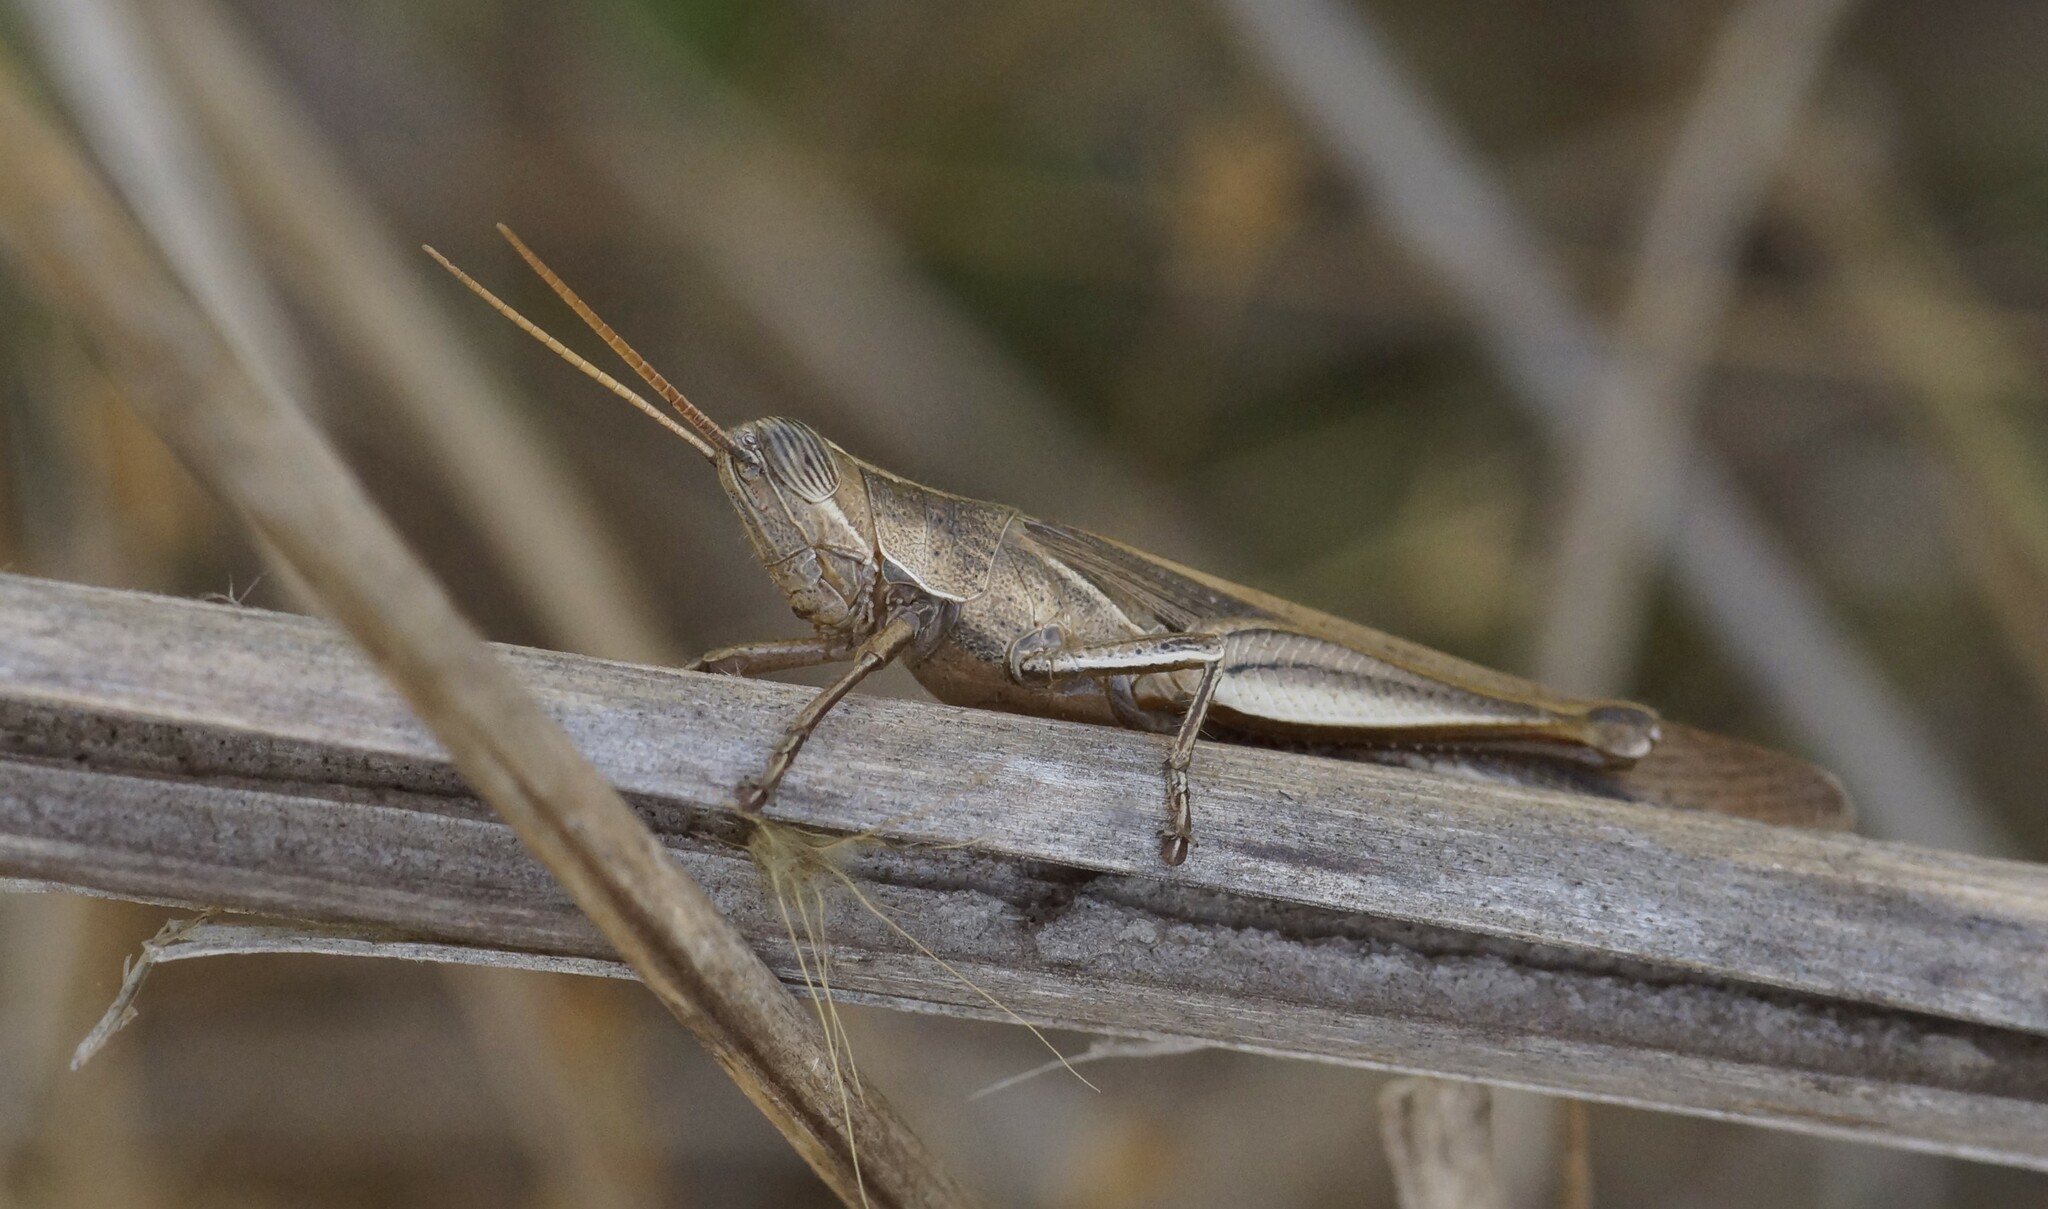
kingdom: Animalia
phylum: Arthropoda
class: Insecta
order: Orthoptera
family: Acrididae
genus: Stenocatantops
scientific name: Stenocatantops vitripennis
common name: Light-brown sharptail
